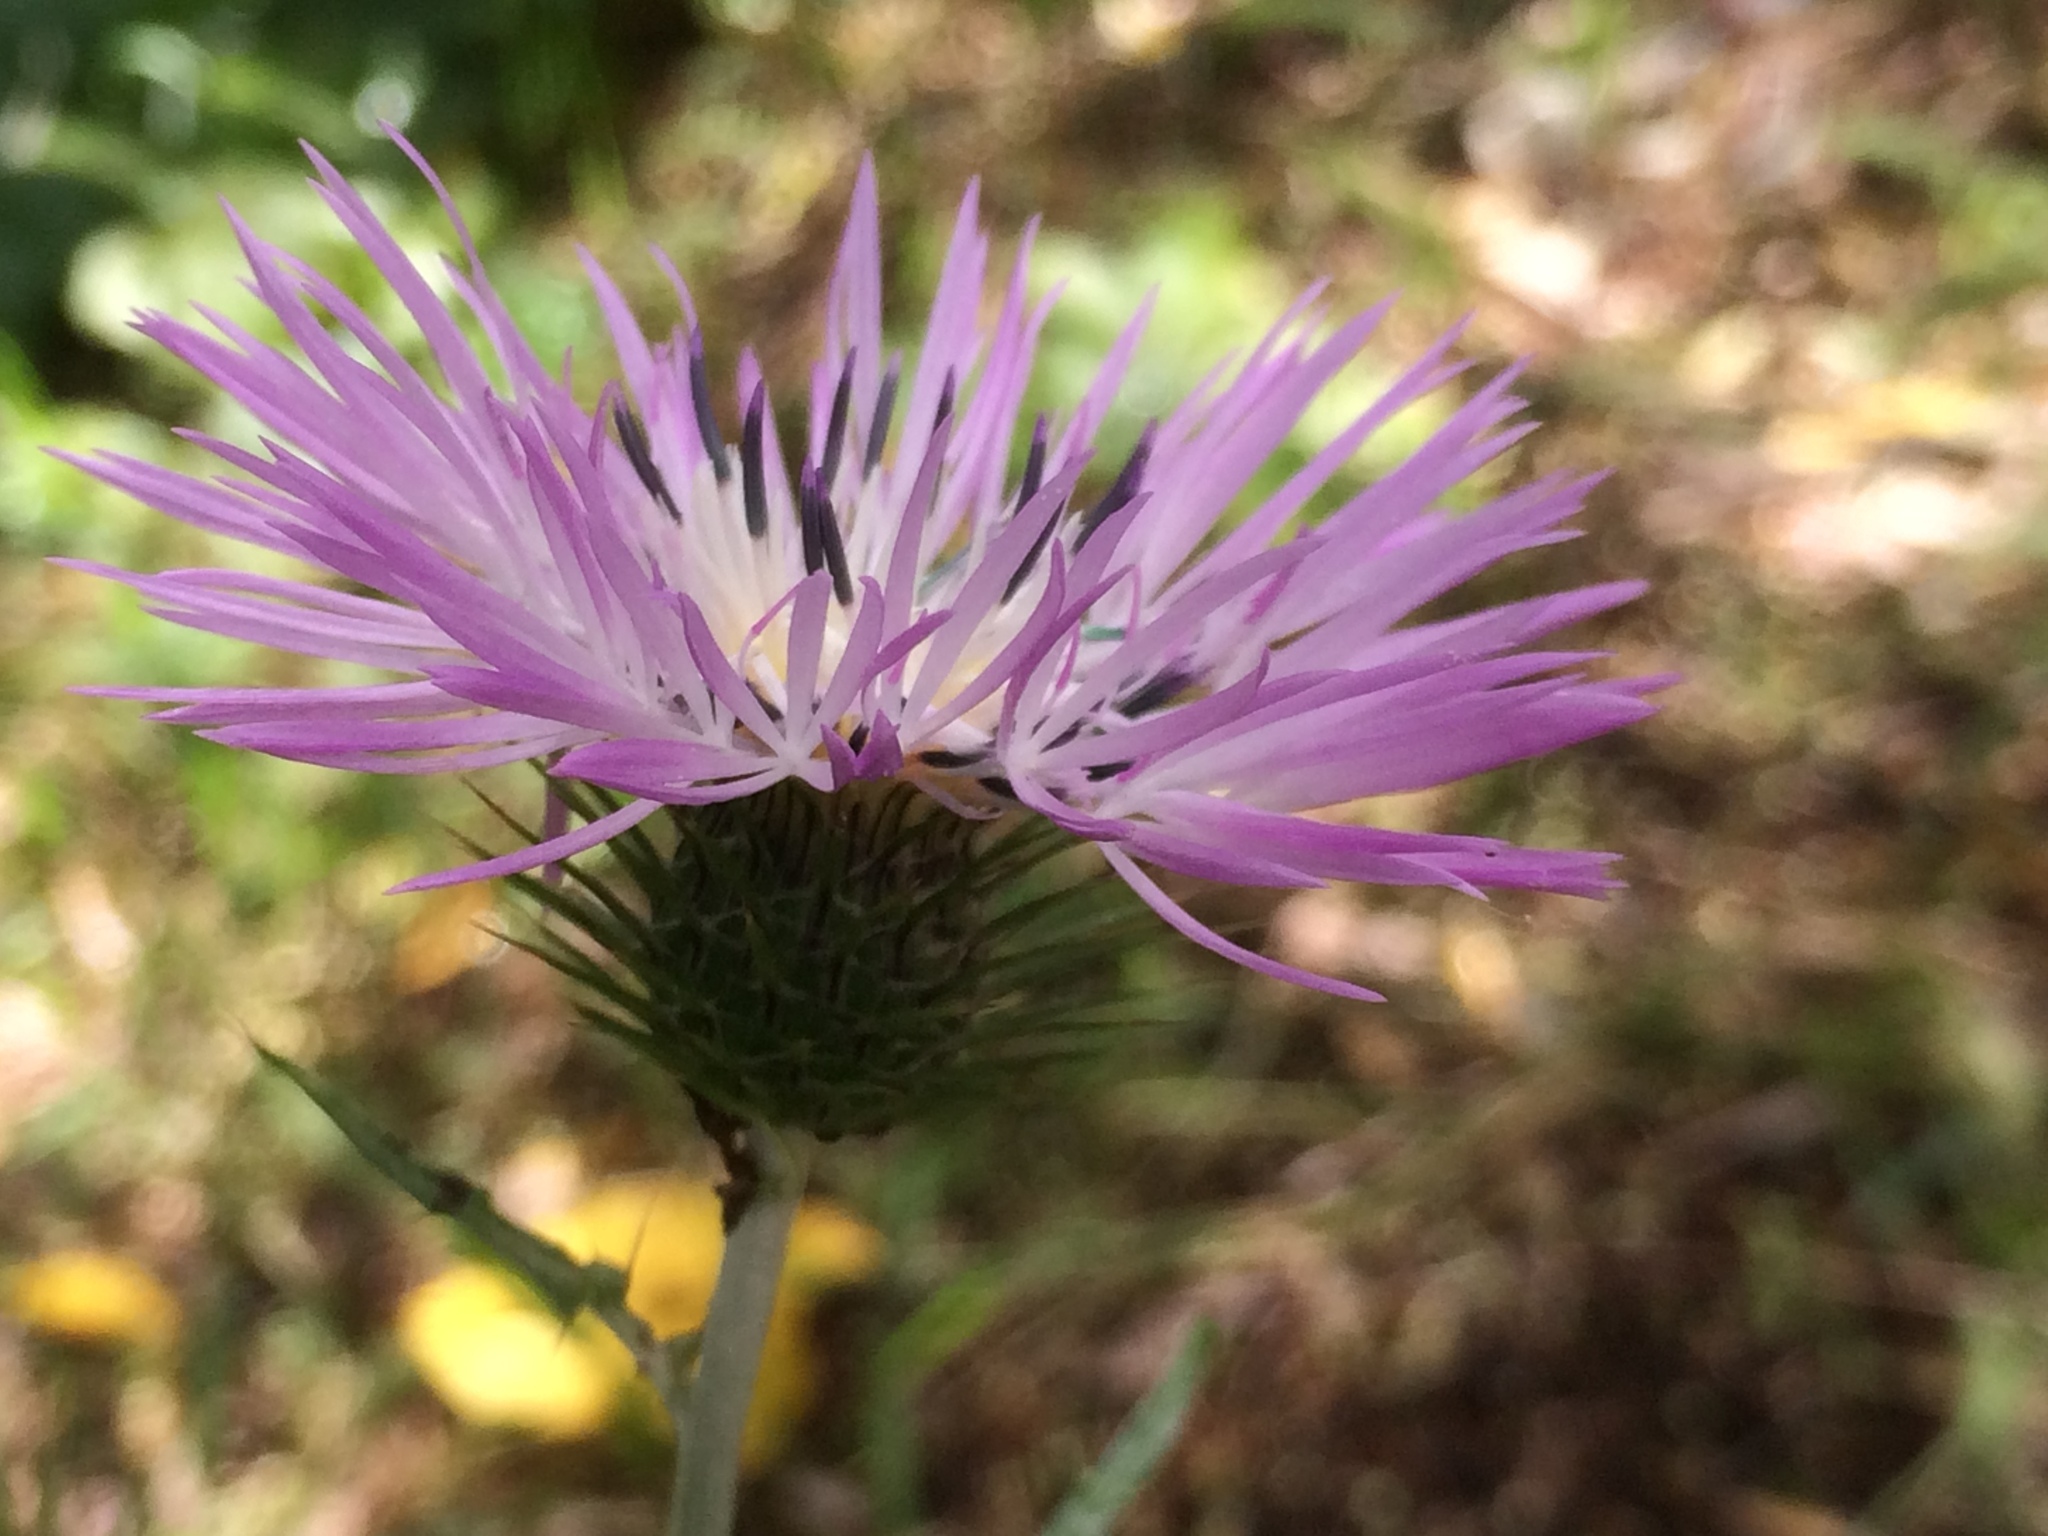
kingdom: Plantae
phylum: Tracheophyta
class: Magnoliopsida
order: Asterales
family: Asteraceae
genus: Galactites
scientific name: Galactites tomentosa
